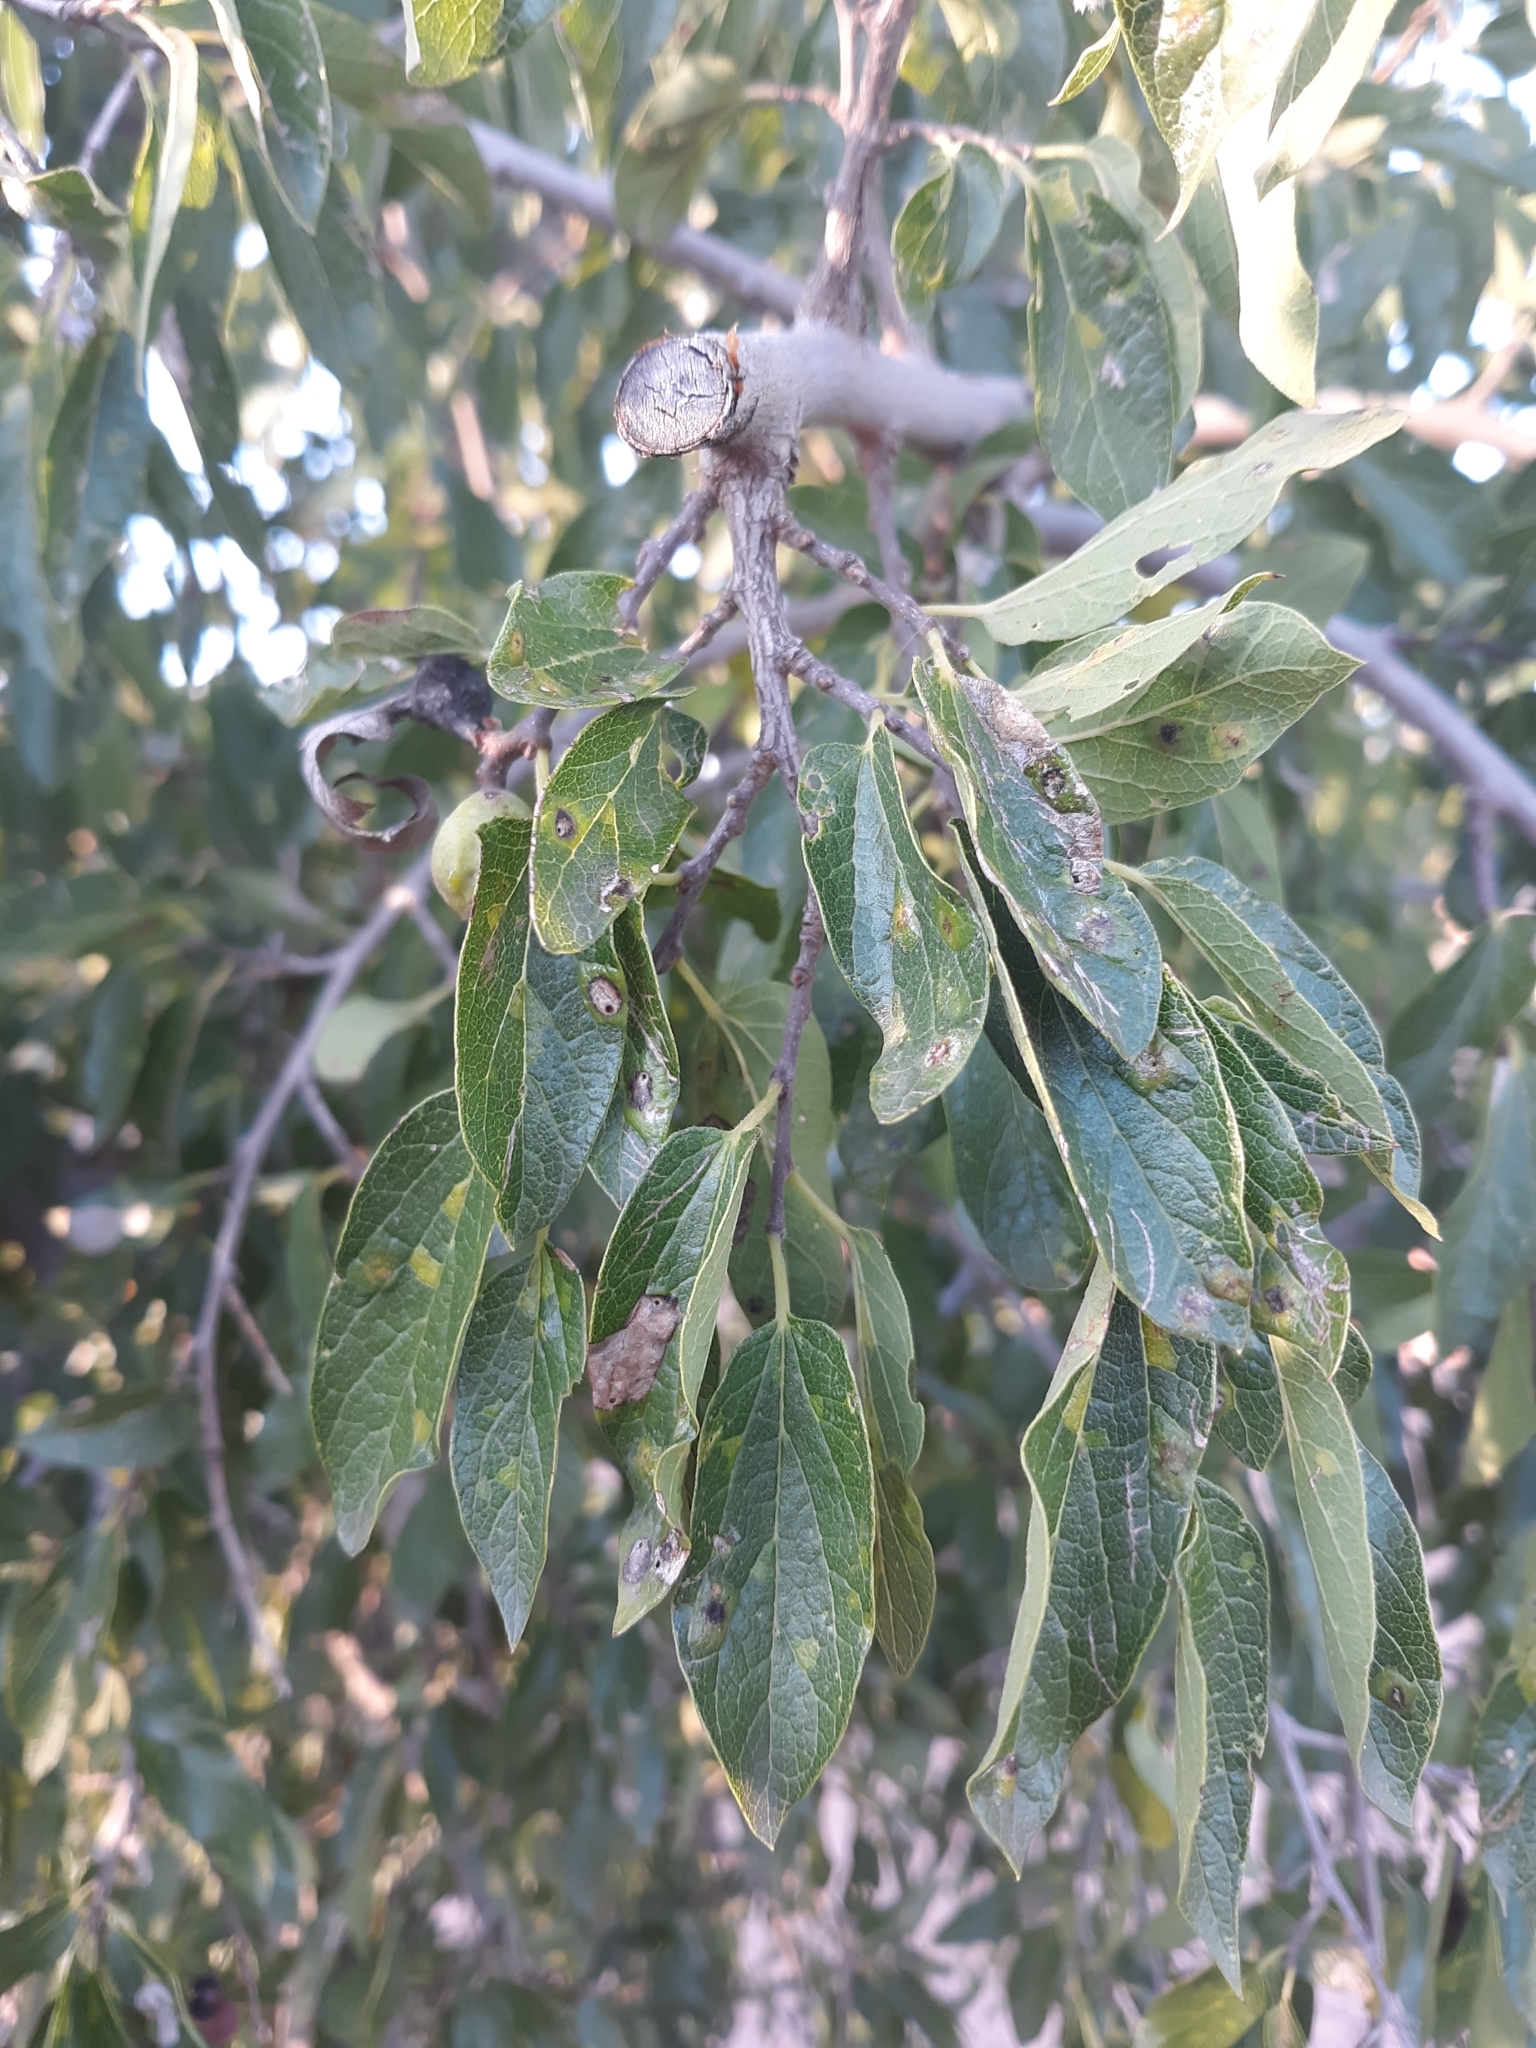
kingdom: Plantae
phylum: Tracheophyta
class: Magnoliopsida
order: Rosales
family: Cannabaceae
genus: Celtis
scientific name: Celtis reticulata
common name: Netleaf hackberry
